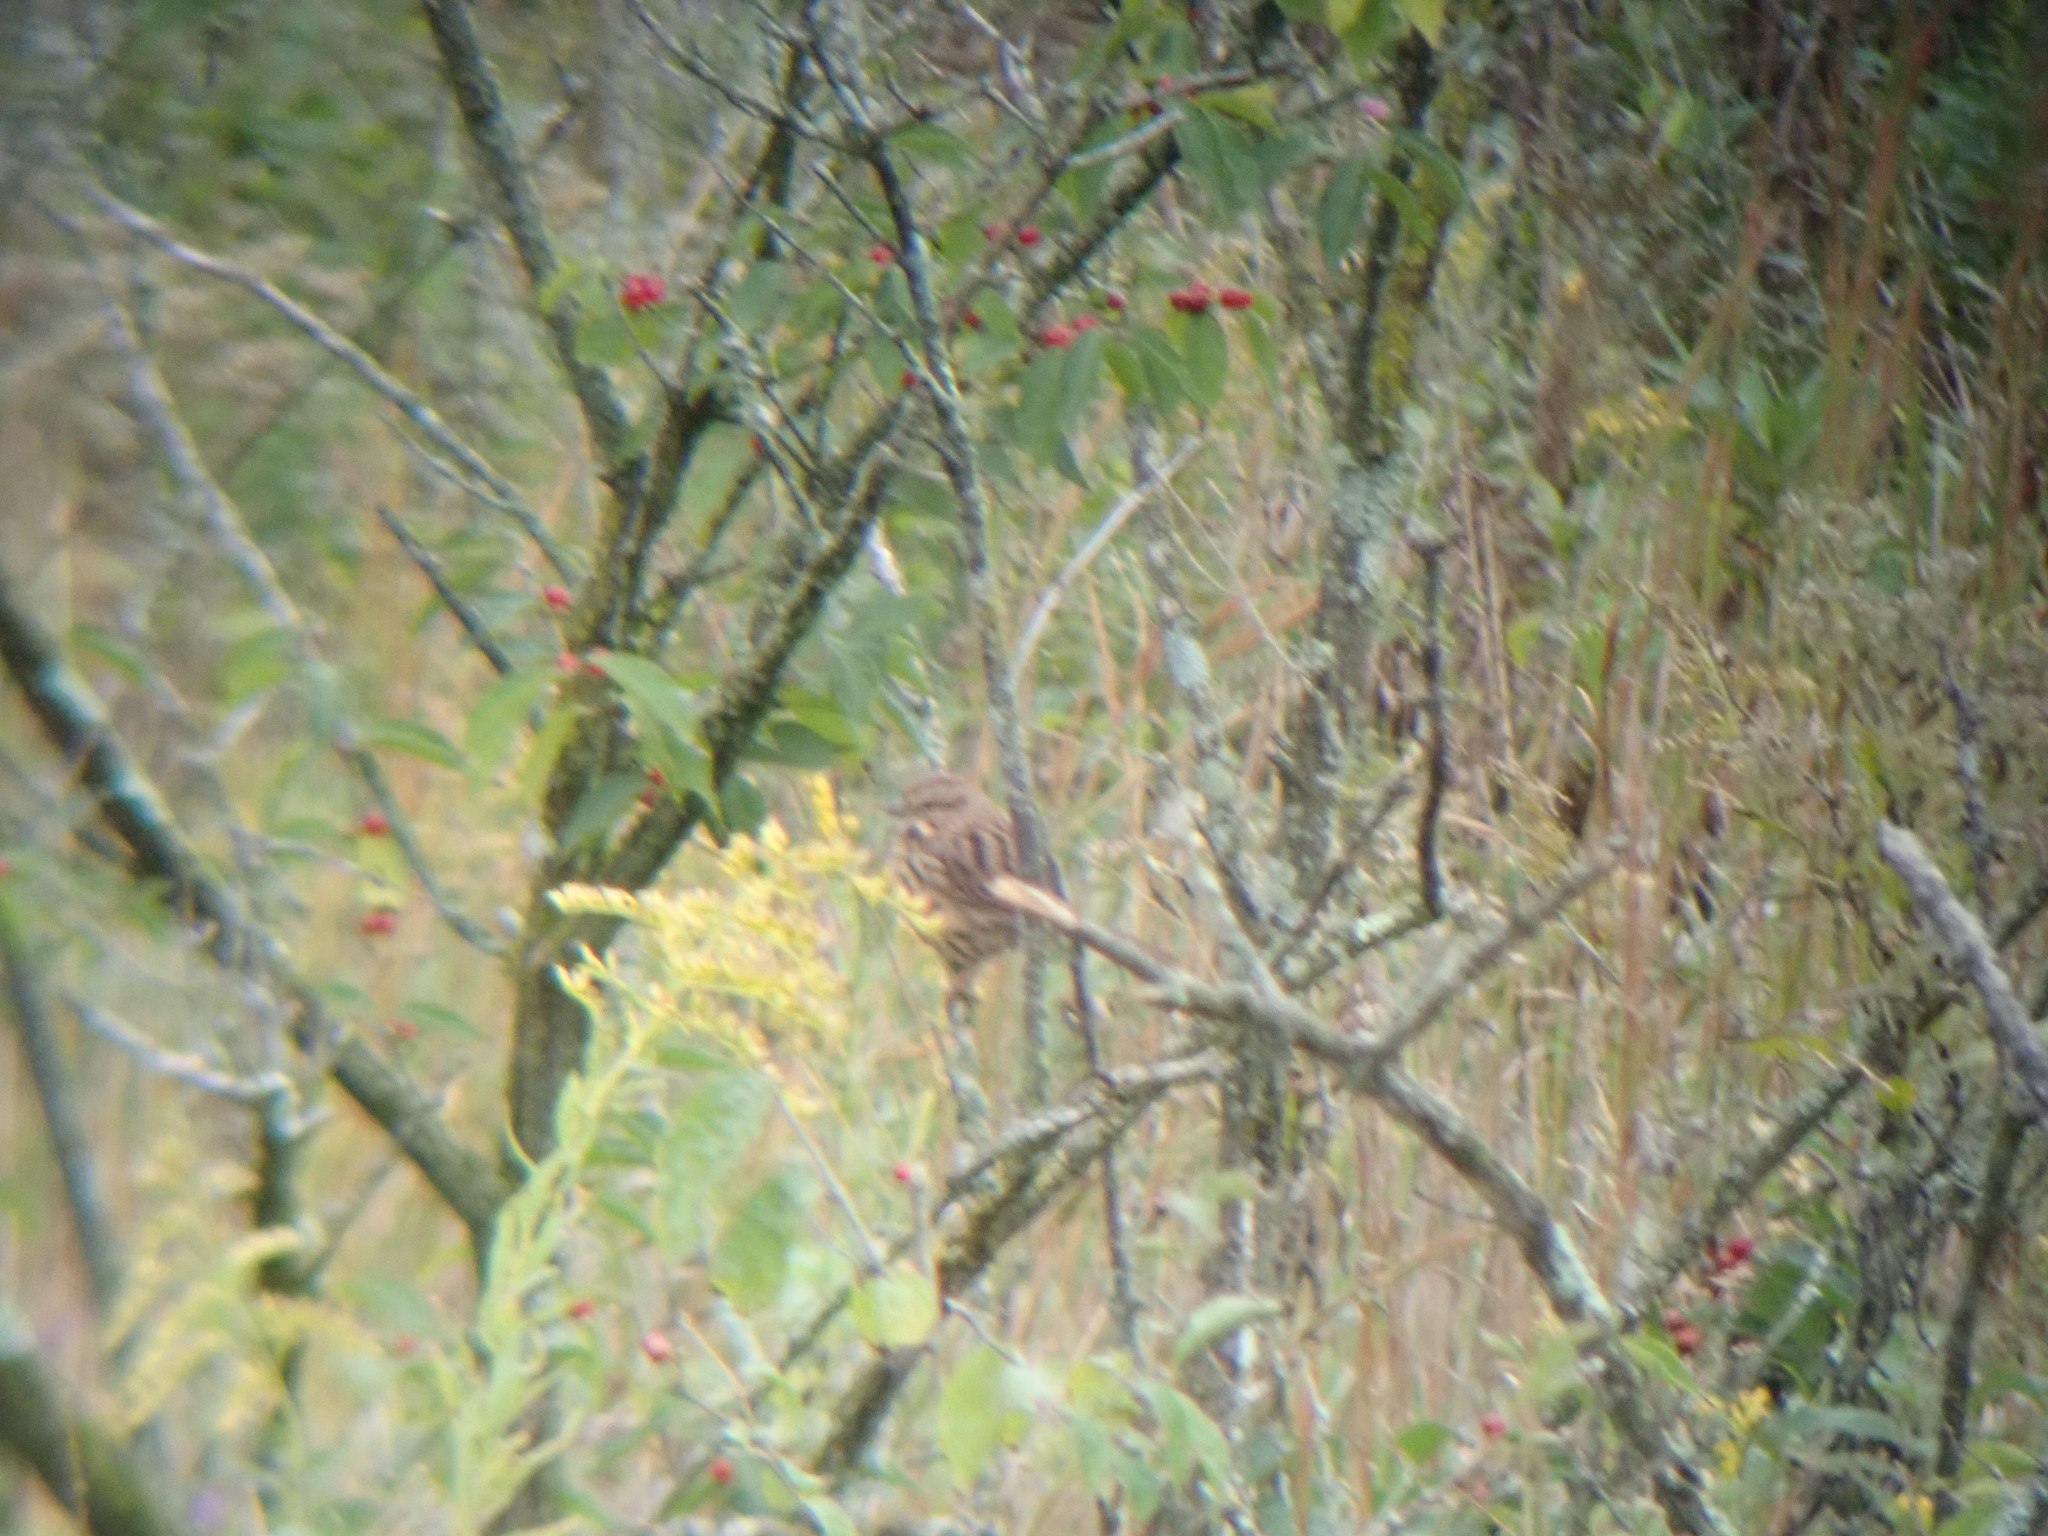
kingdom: Animalia
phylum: Chordata
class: Aves
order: Passeriformes
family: Passerellidae
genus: Melospiza
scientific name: Melospiza melodia
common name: Song sparrow
